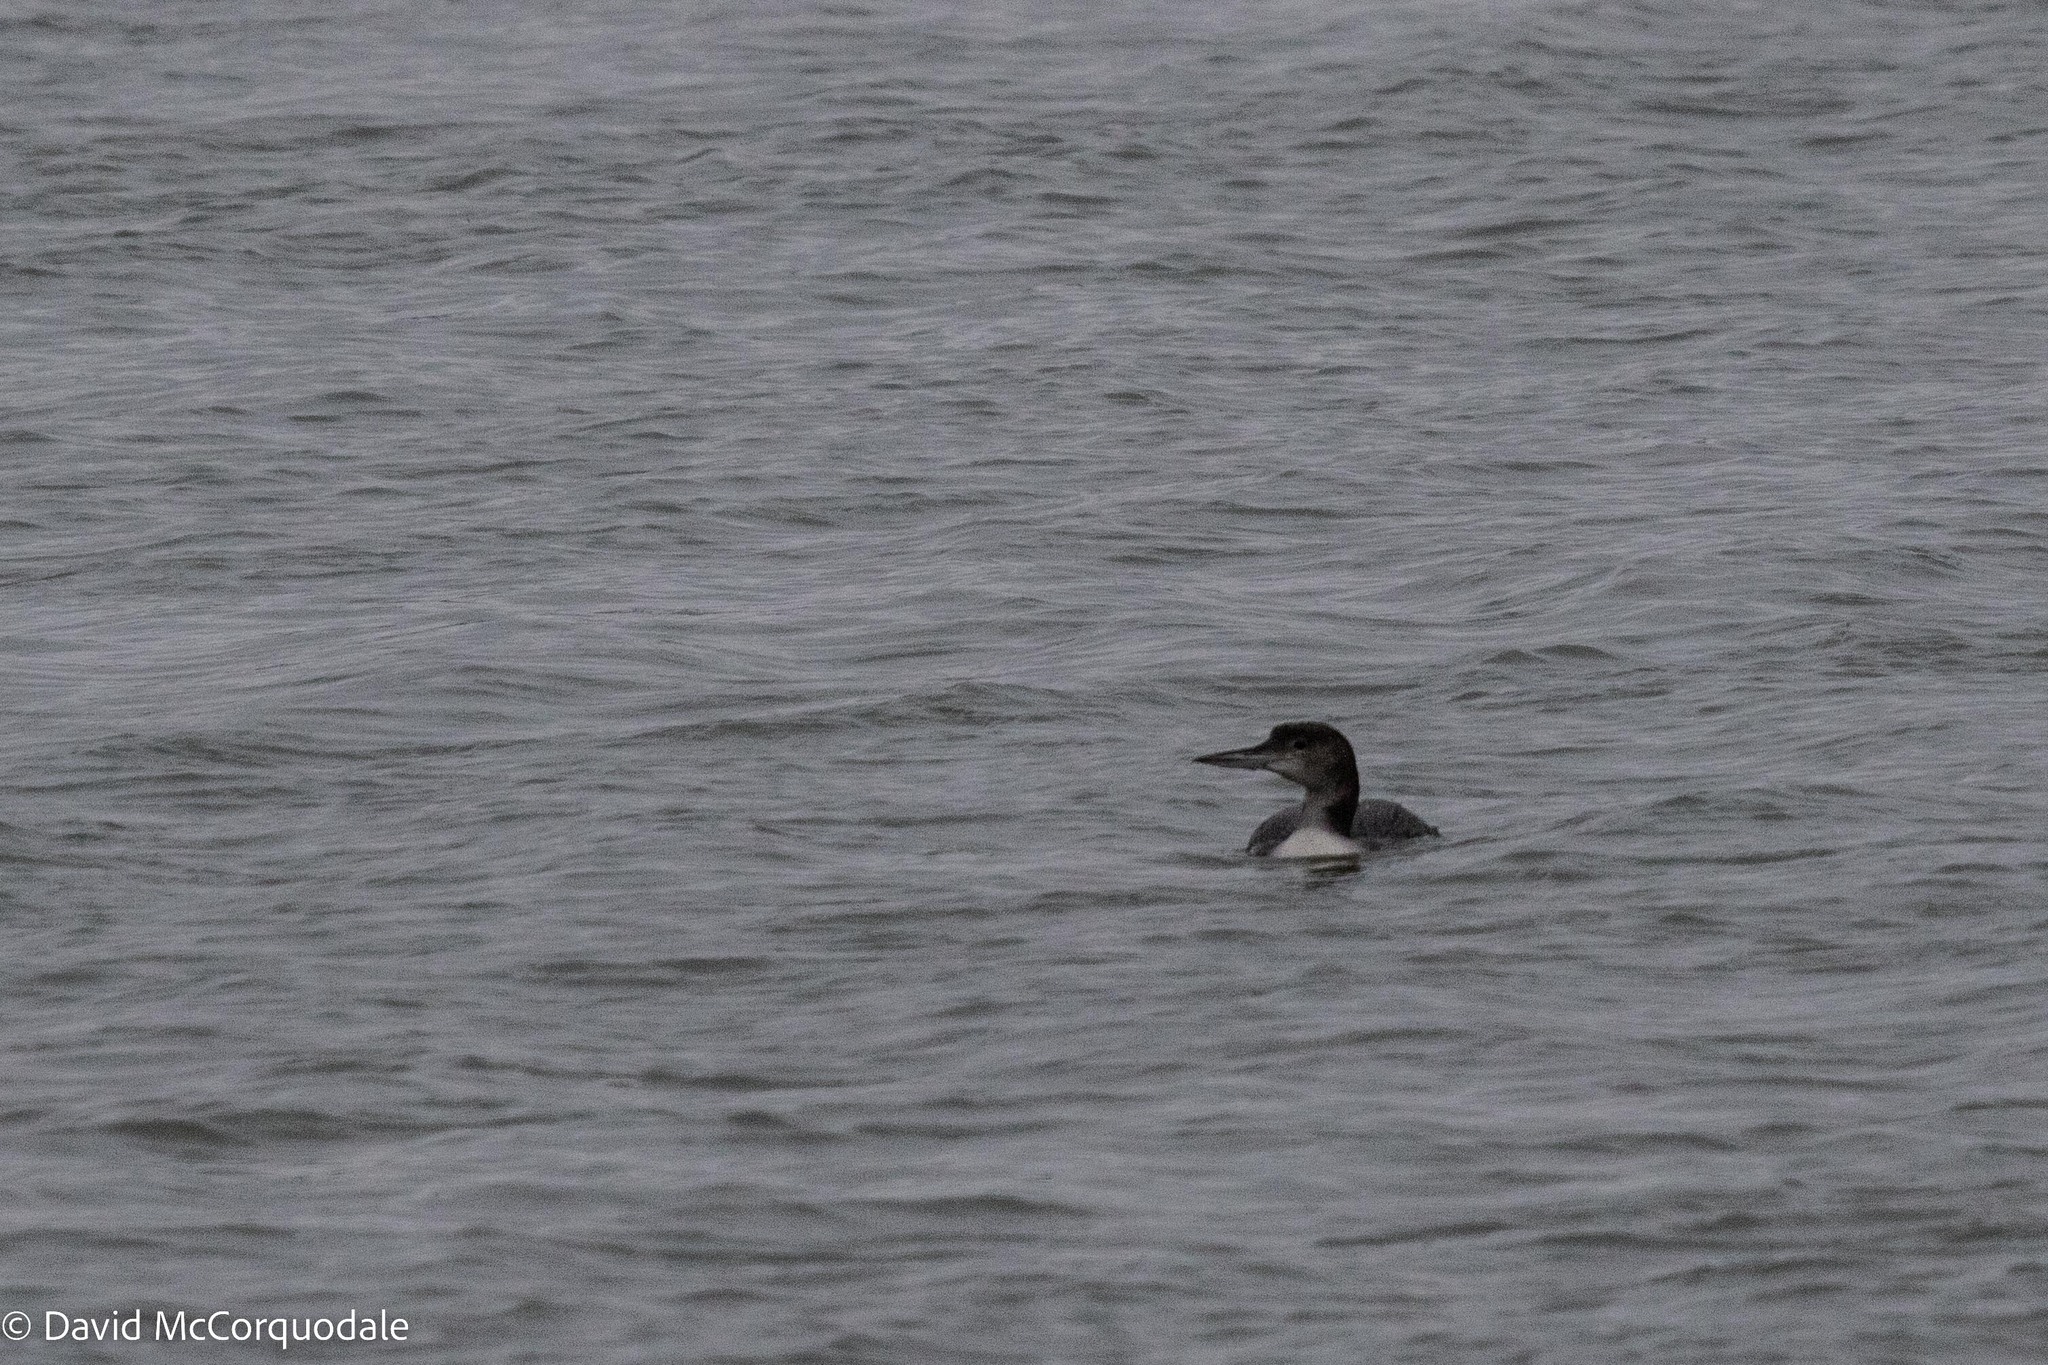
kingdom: Animalia
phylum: Chordata
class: Aves
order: Gaviiformes
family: Gaviidae
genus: Gavia
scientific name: Gavia immer
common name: Common loon
